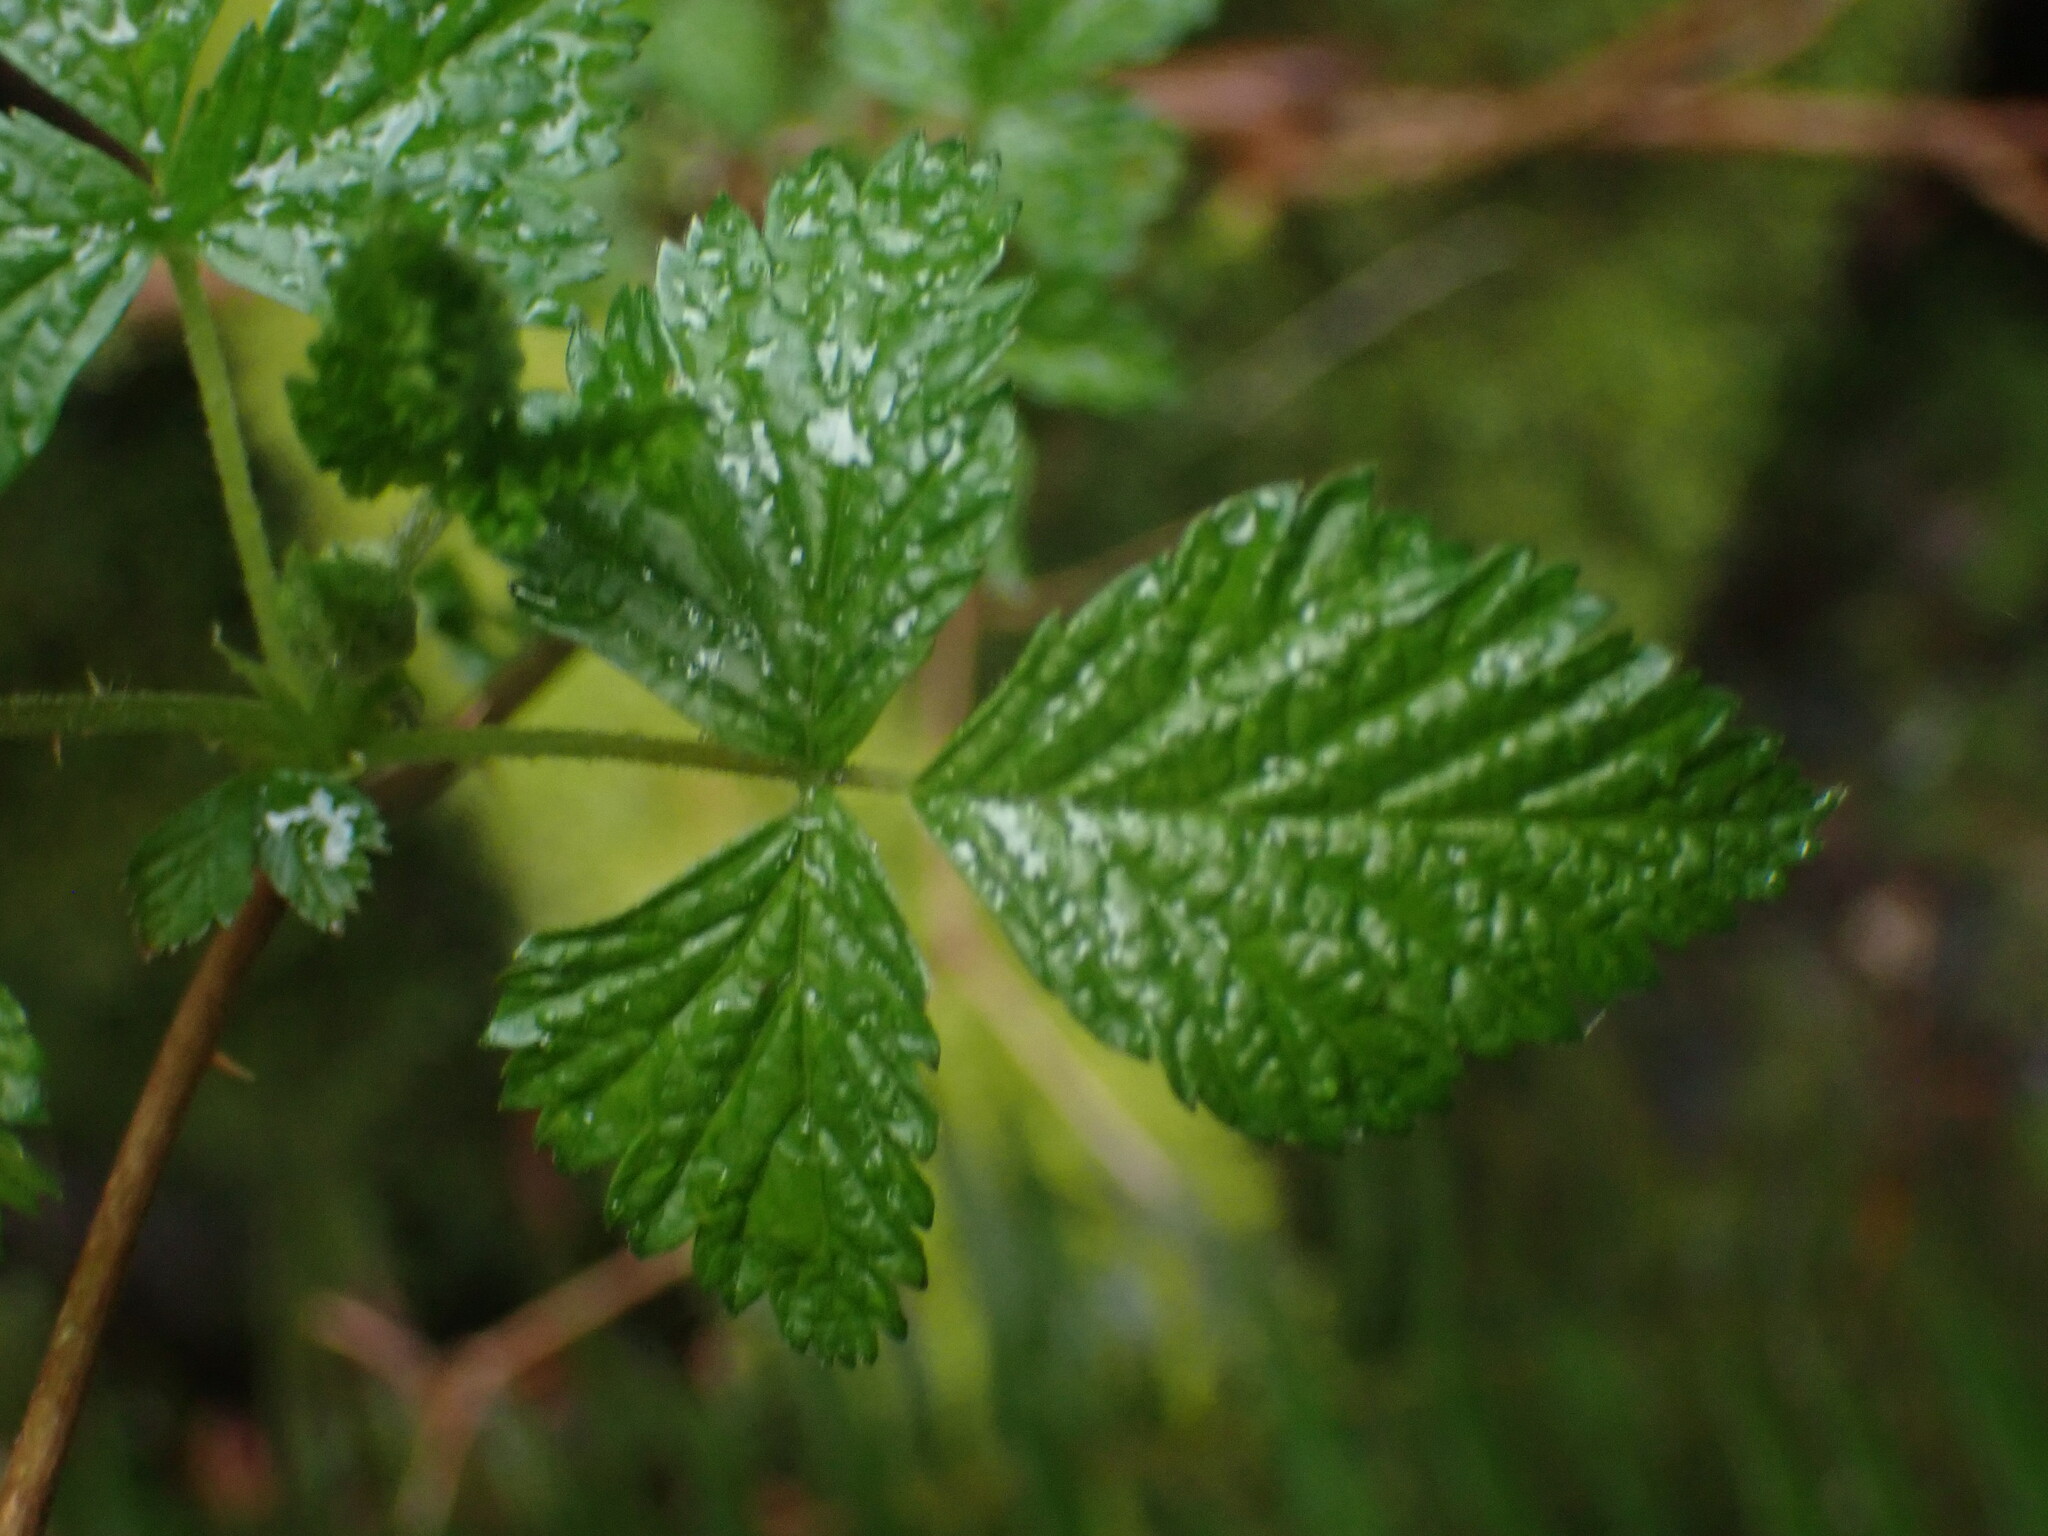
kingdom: Plantae
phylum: Tracheophyta
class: Magnoliopsida
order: Rosales
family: Rosaceae
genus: Rubus
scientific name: Rubus spectabilis
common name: Salmonberry
